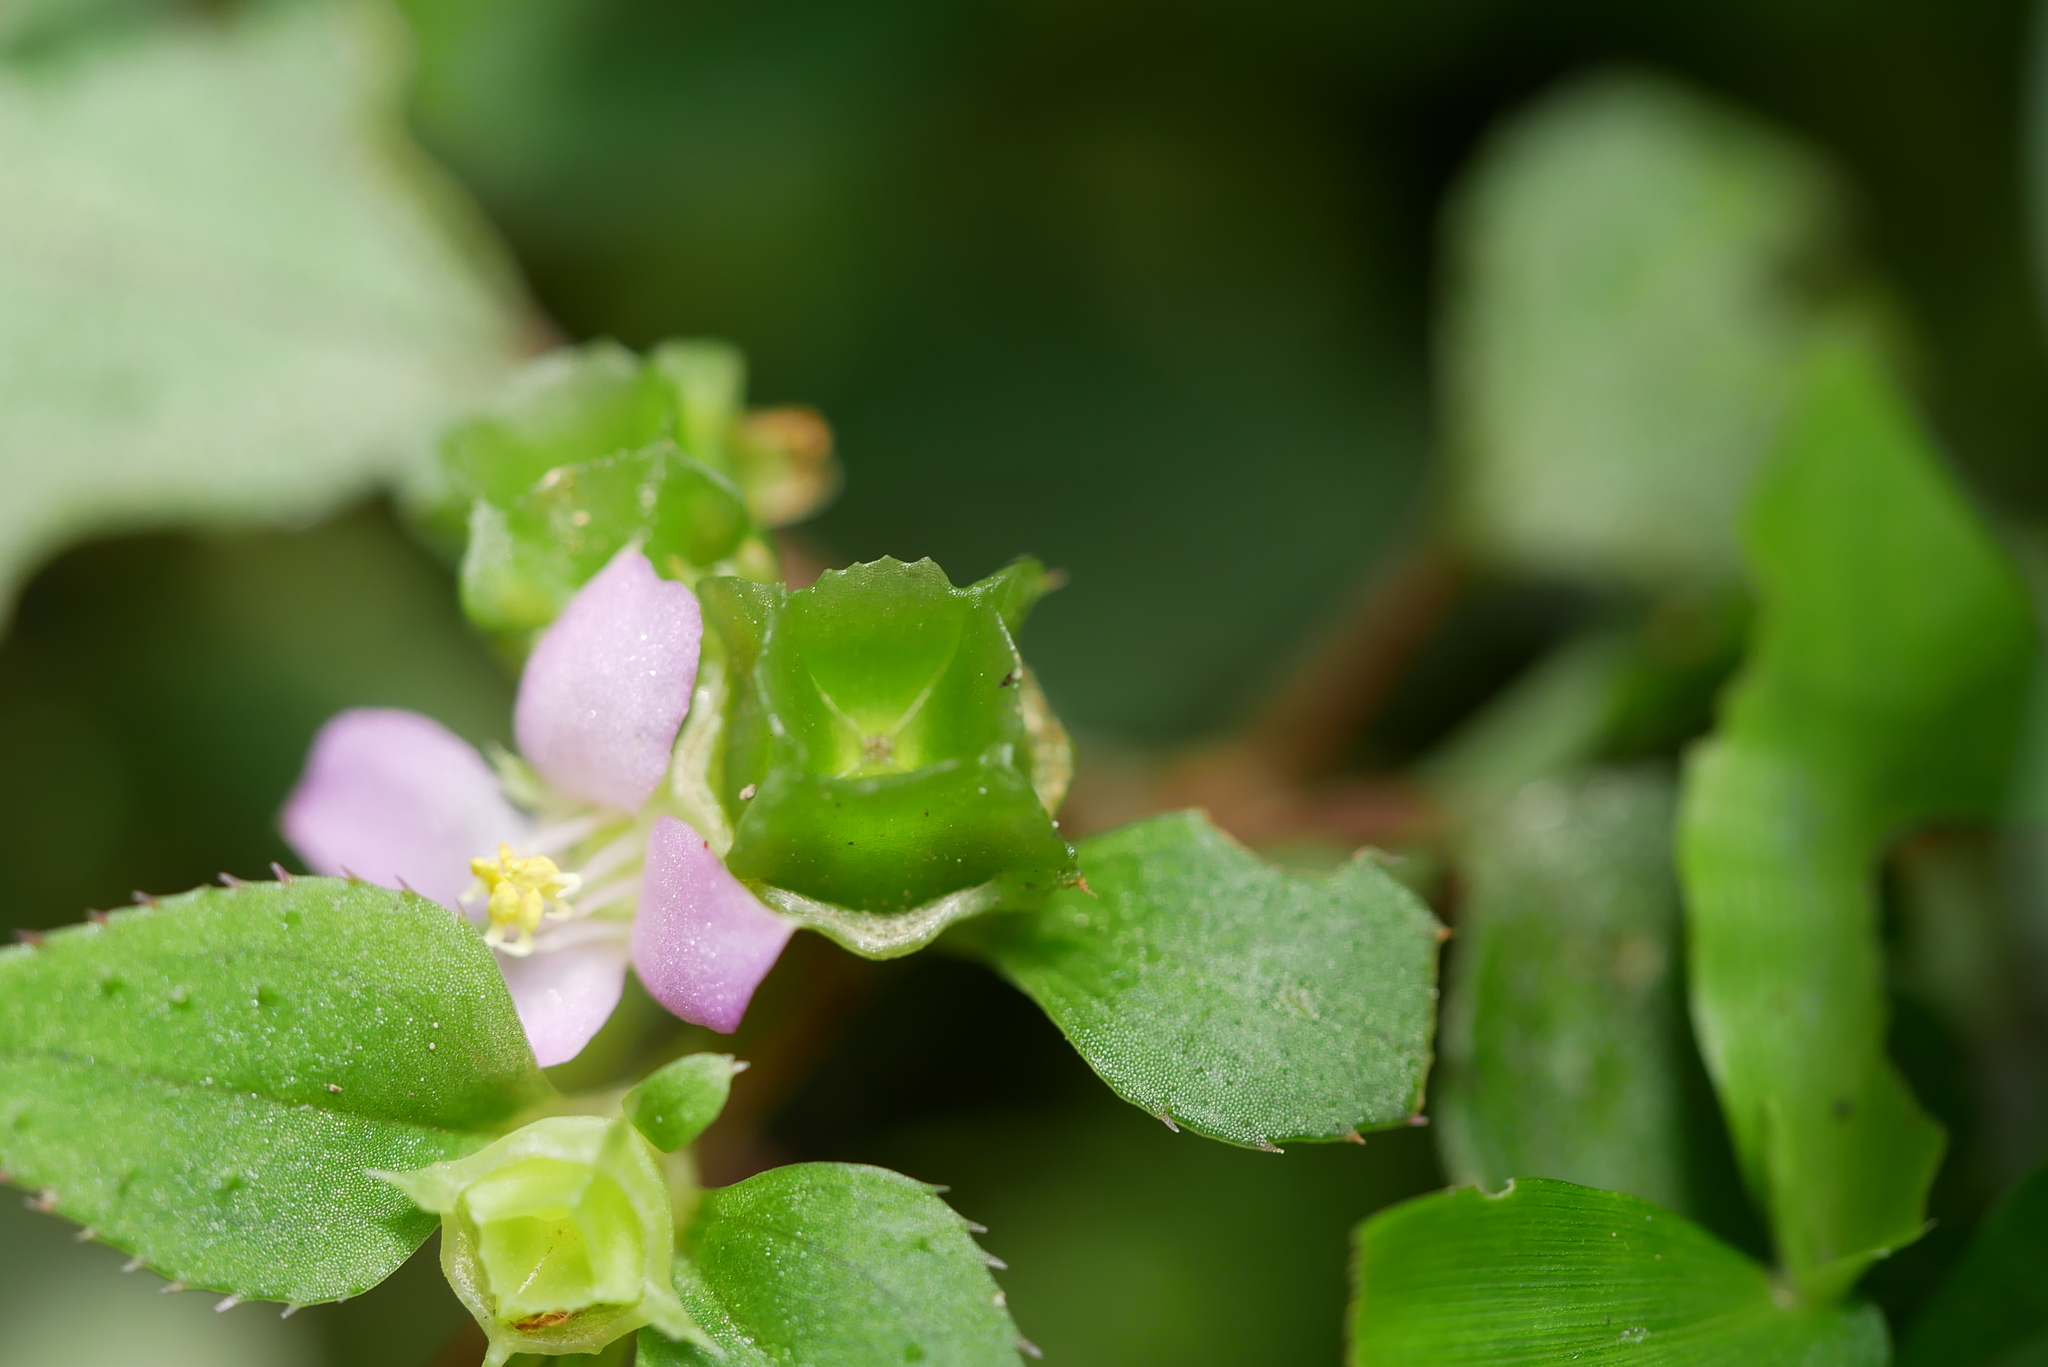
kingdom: Plantae
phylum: Tracheophyta
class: Magnoliopsida
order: Myrtales
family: Melastomataceae
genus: Sarcopyramis
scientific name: Sarcopyramis napalensis
